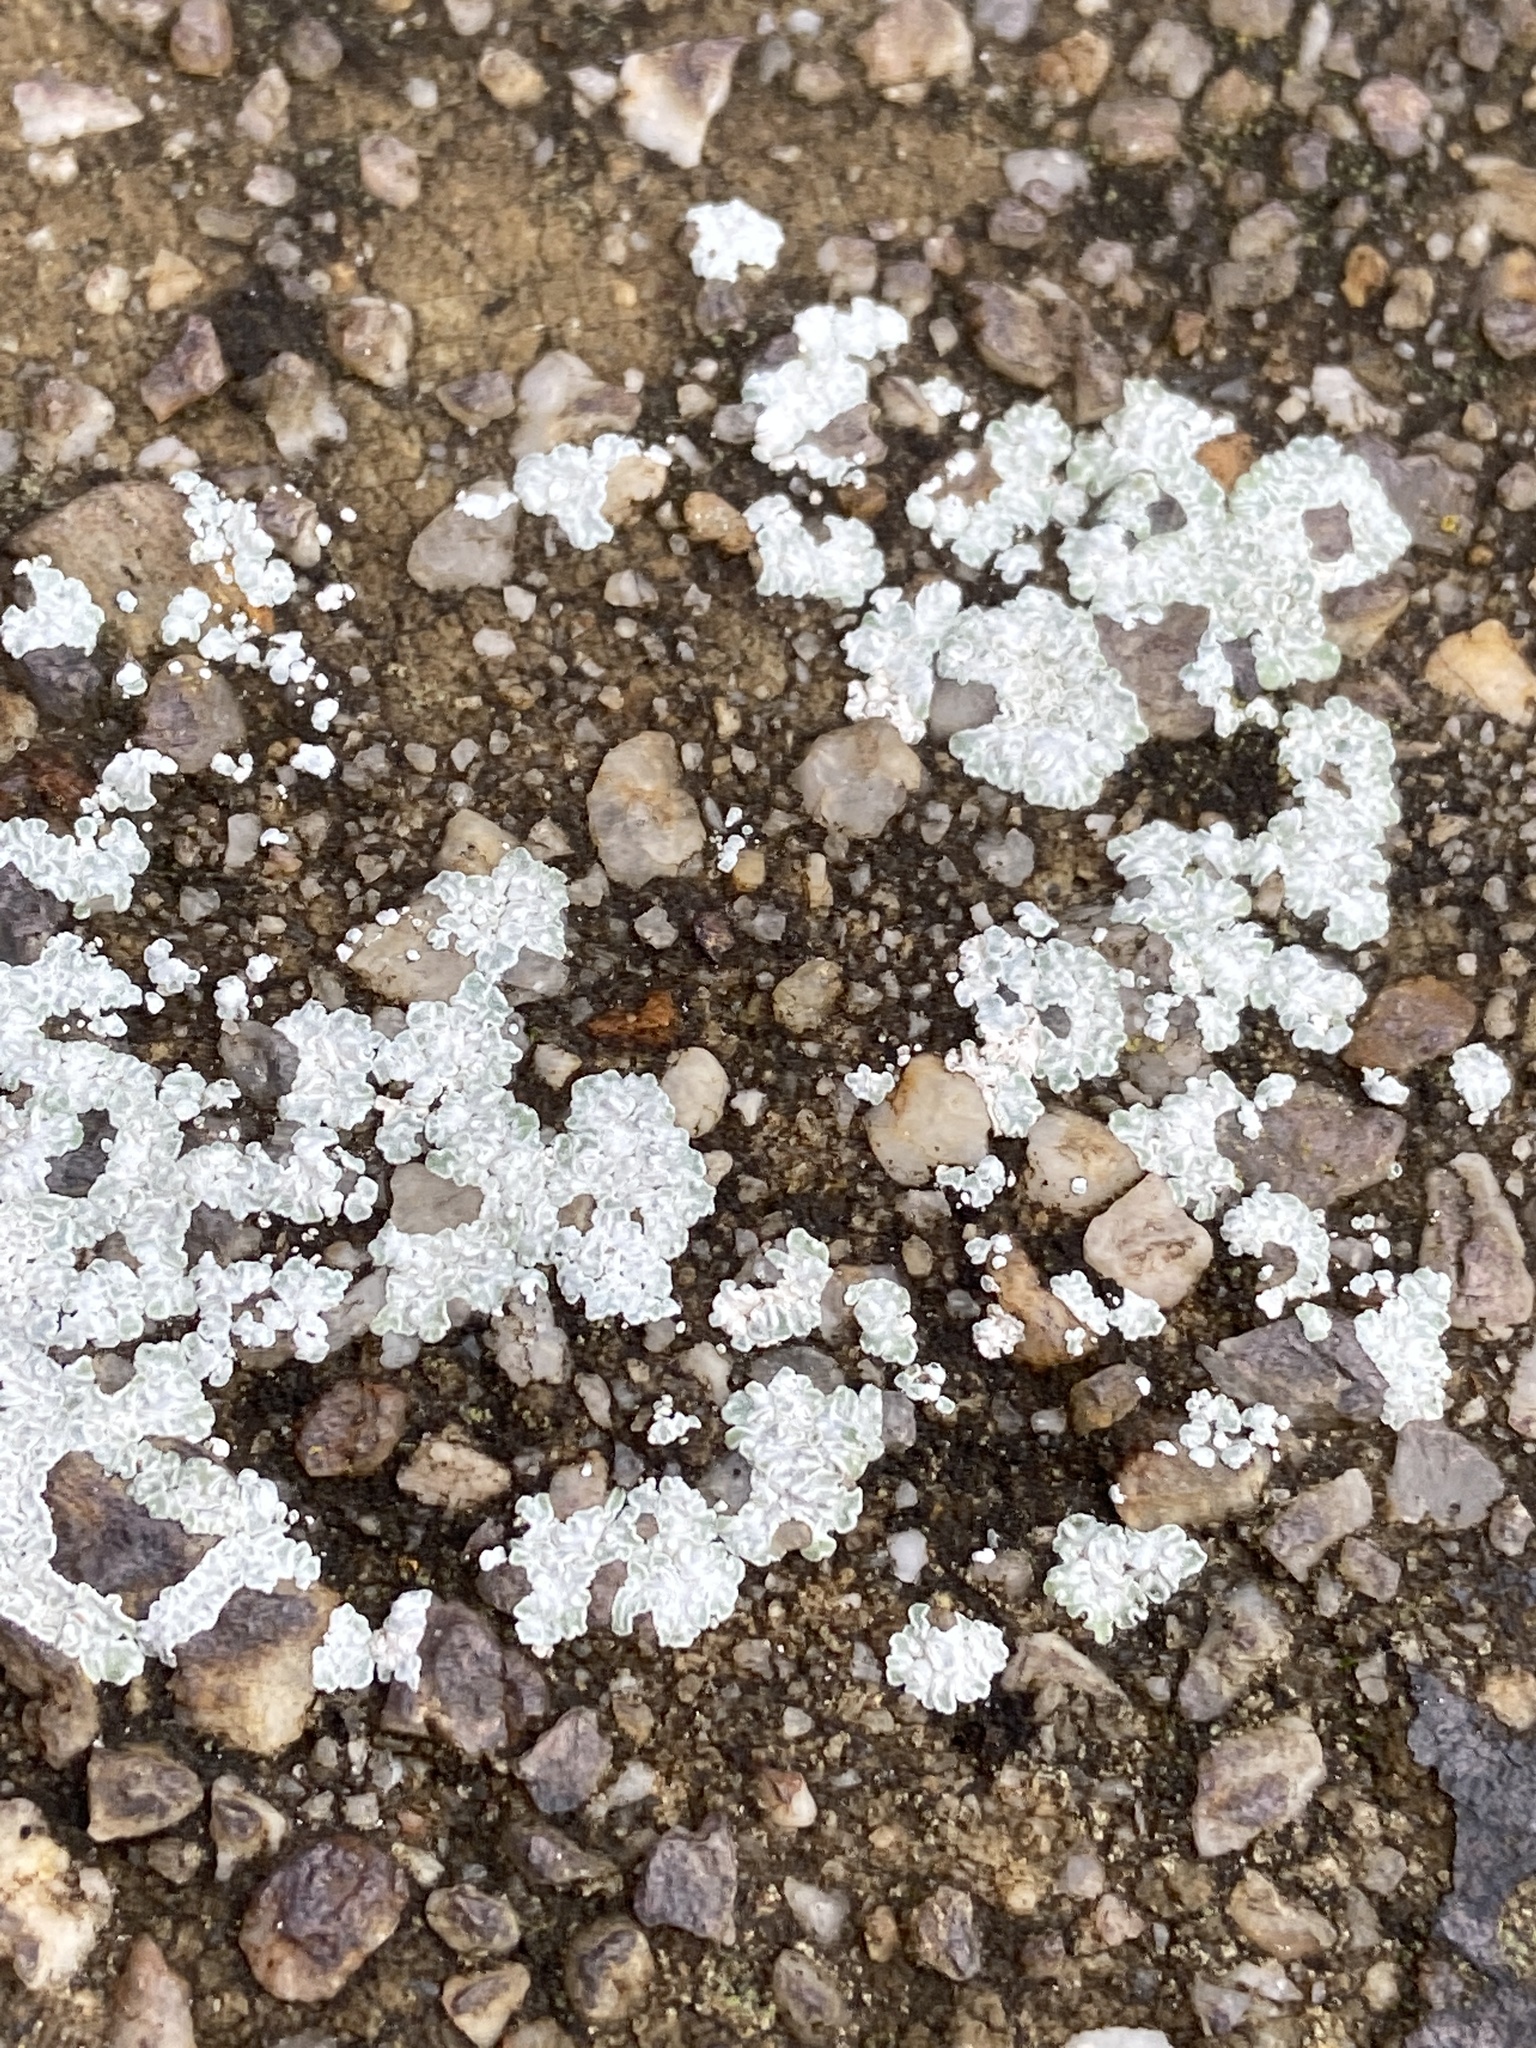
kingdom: Fungi
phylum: Ascomycota
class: Lecanoromycetes
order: Lecanorales
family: Lecanoraceae
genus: Protoparmeliopsis
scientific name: Protoparmeliopsis muralis
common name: Stonewall rim lichen
